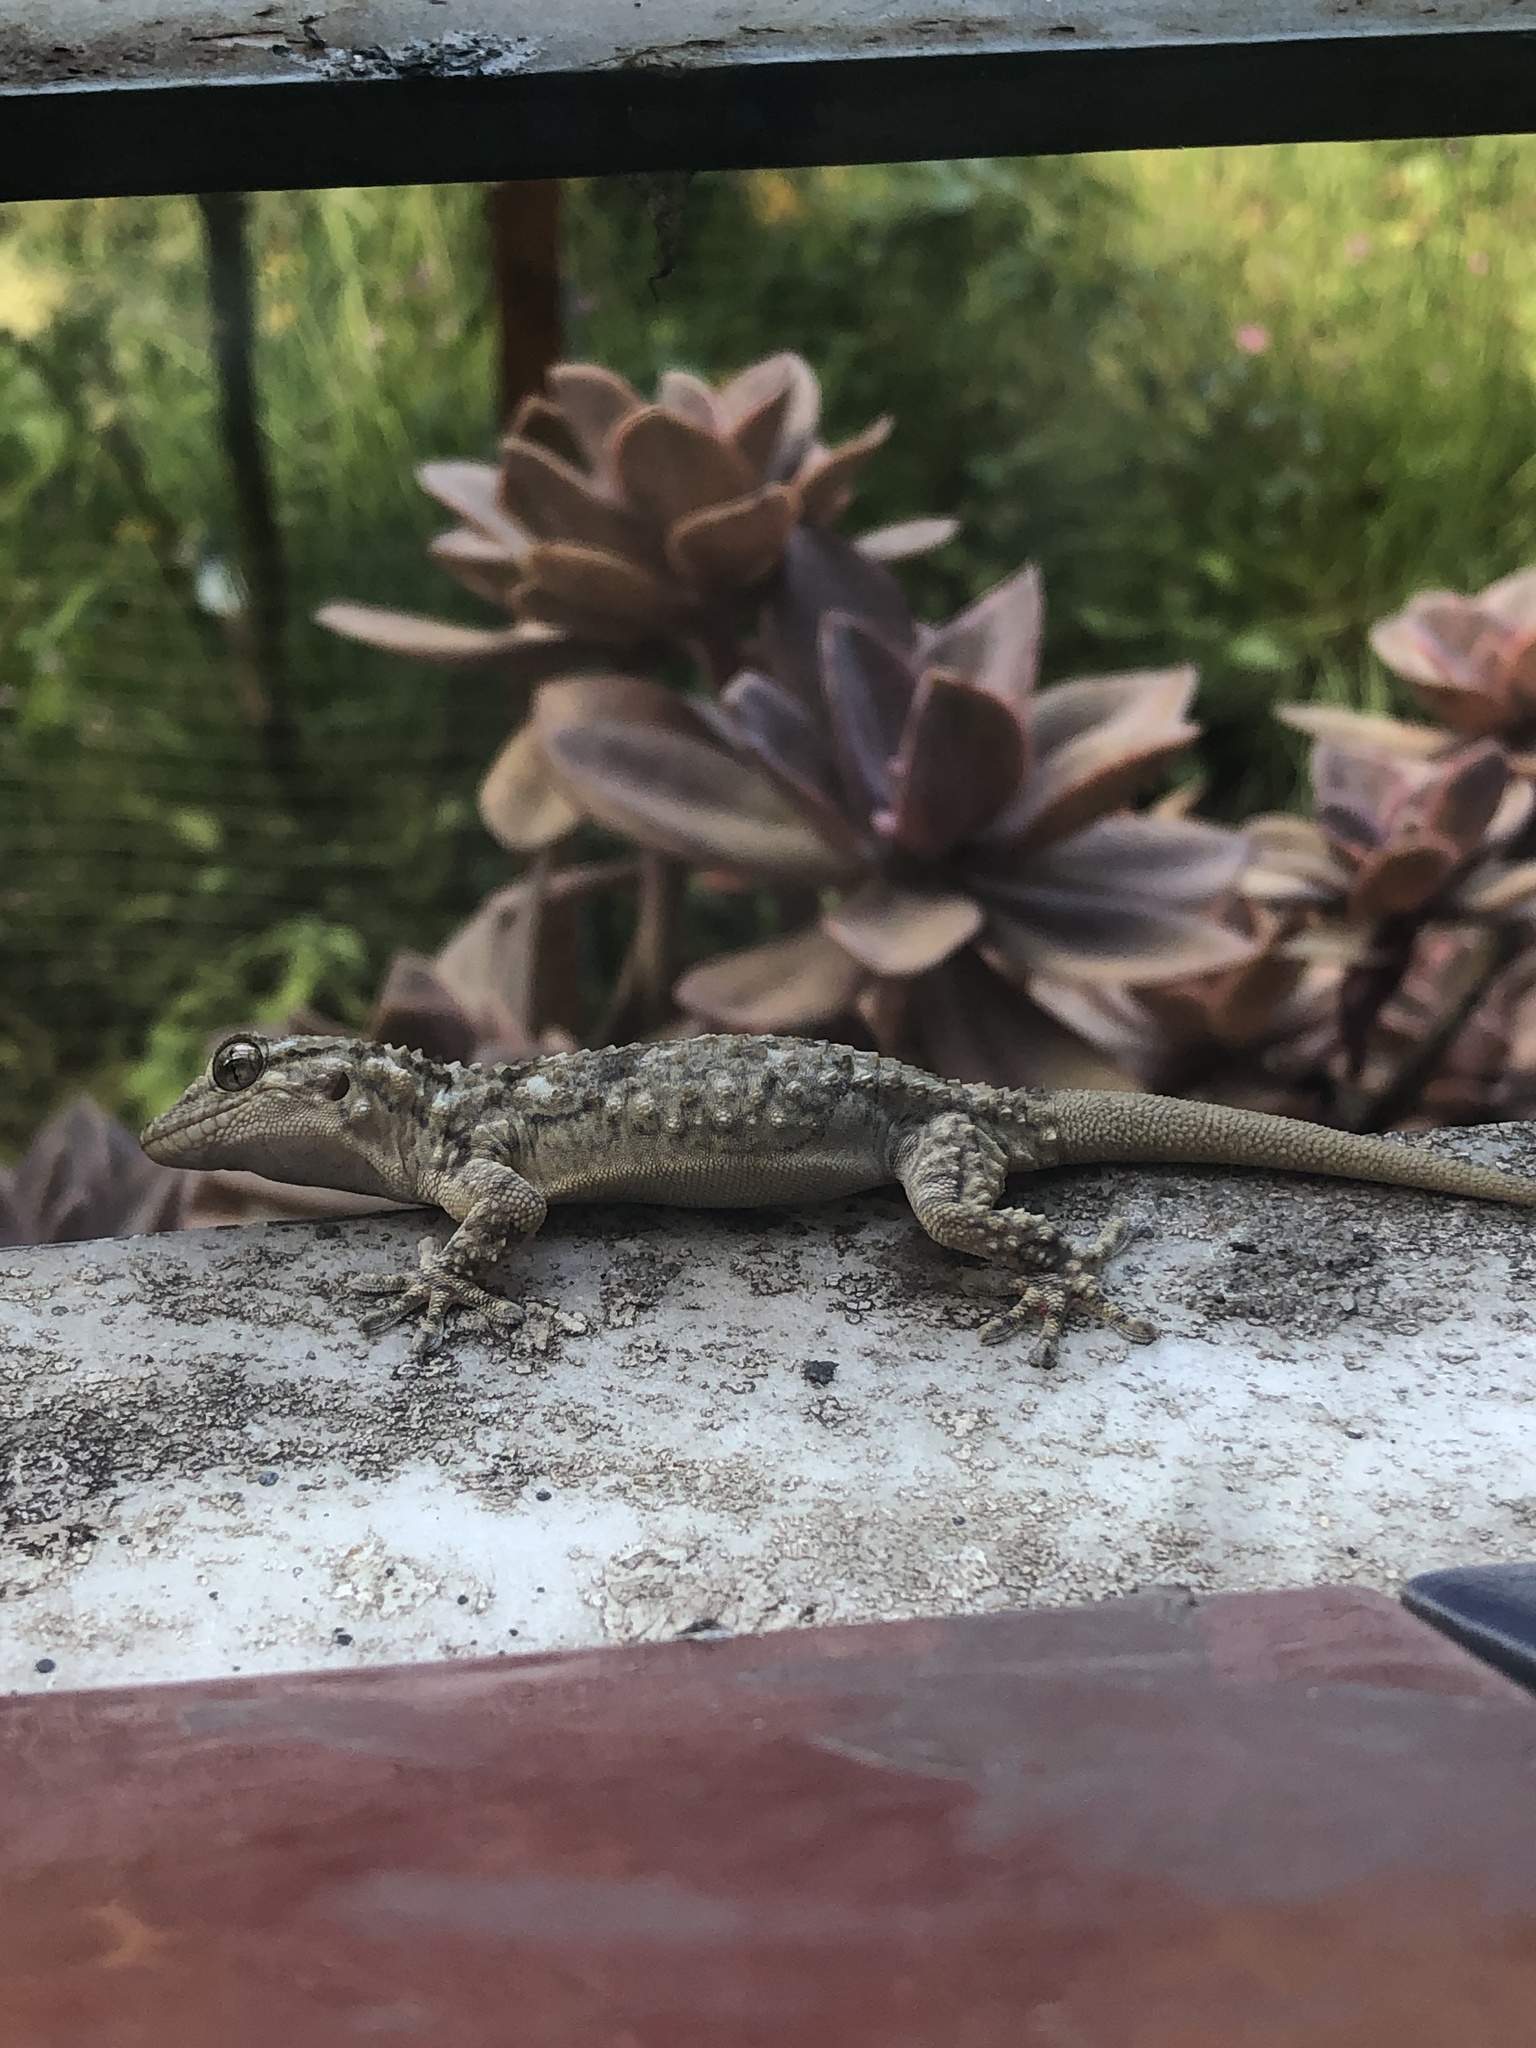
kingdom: Animalia
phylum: Chordata
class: Squamata
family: Phyllodactylidae
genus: Tarentola
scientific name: Tarentola mauritanica
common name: Moorish gecko
